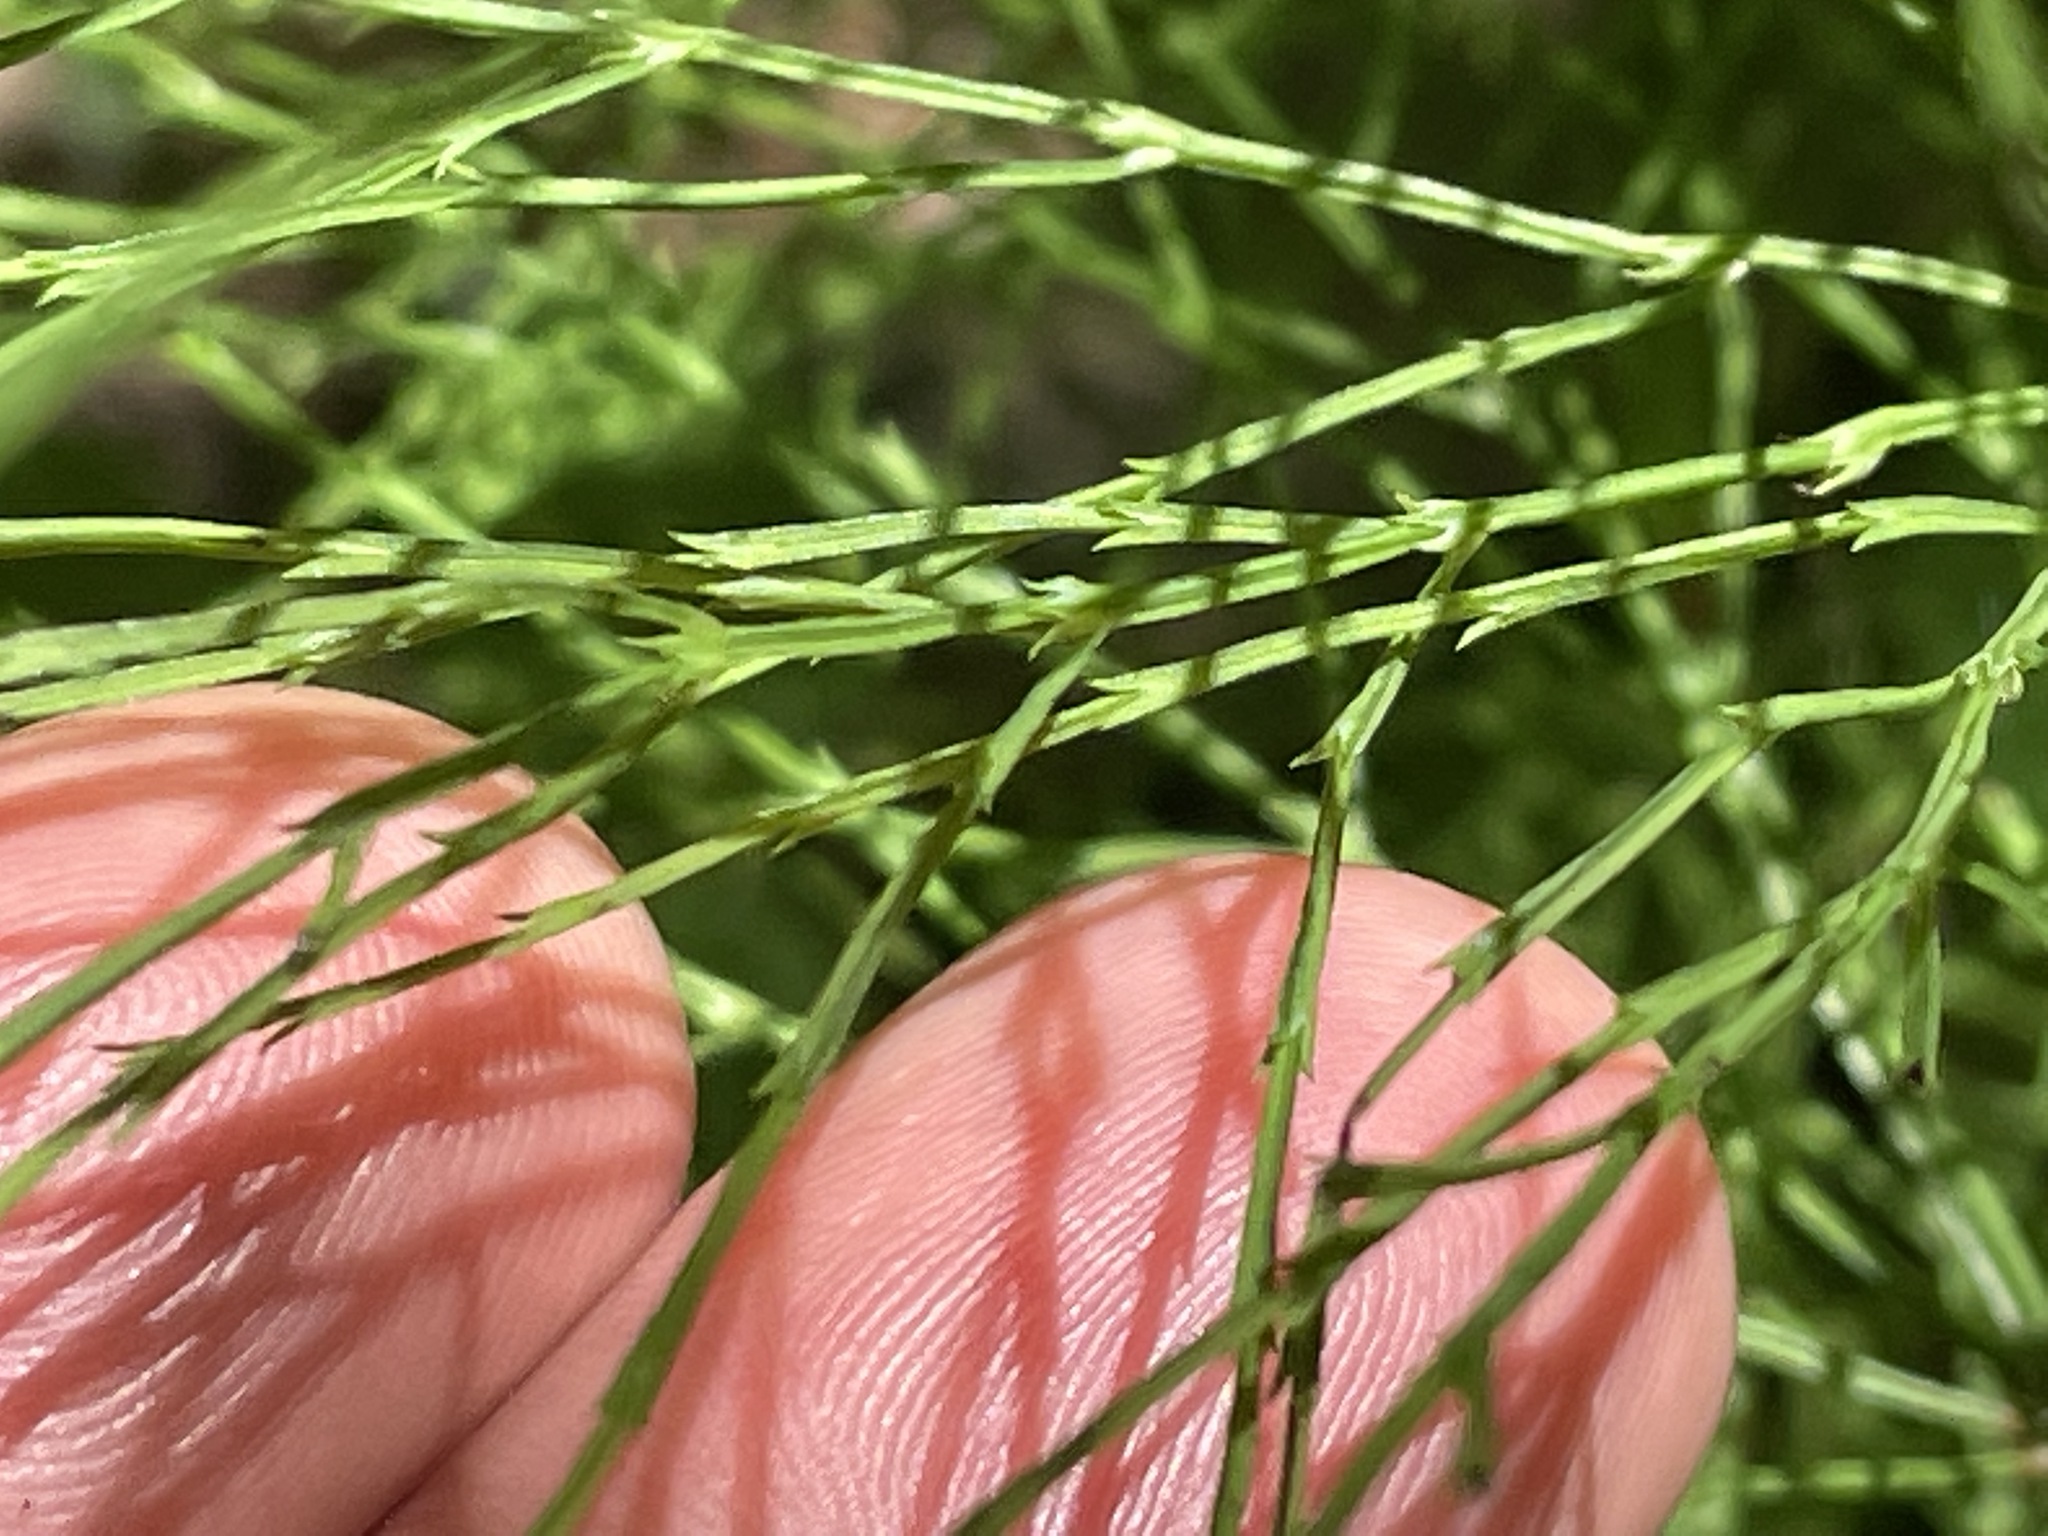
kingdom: Plantae
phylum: Tracheophyta
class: Polypodiopsida
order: Equisetales
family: Equisetaceae
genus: Equisetum
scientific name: Equisetum sylvaticum
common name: Wood horsetail
